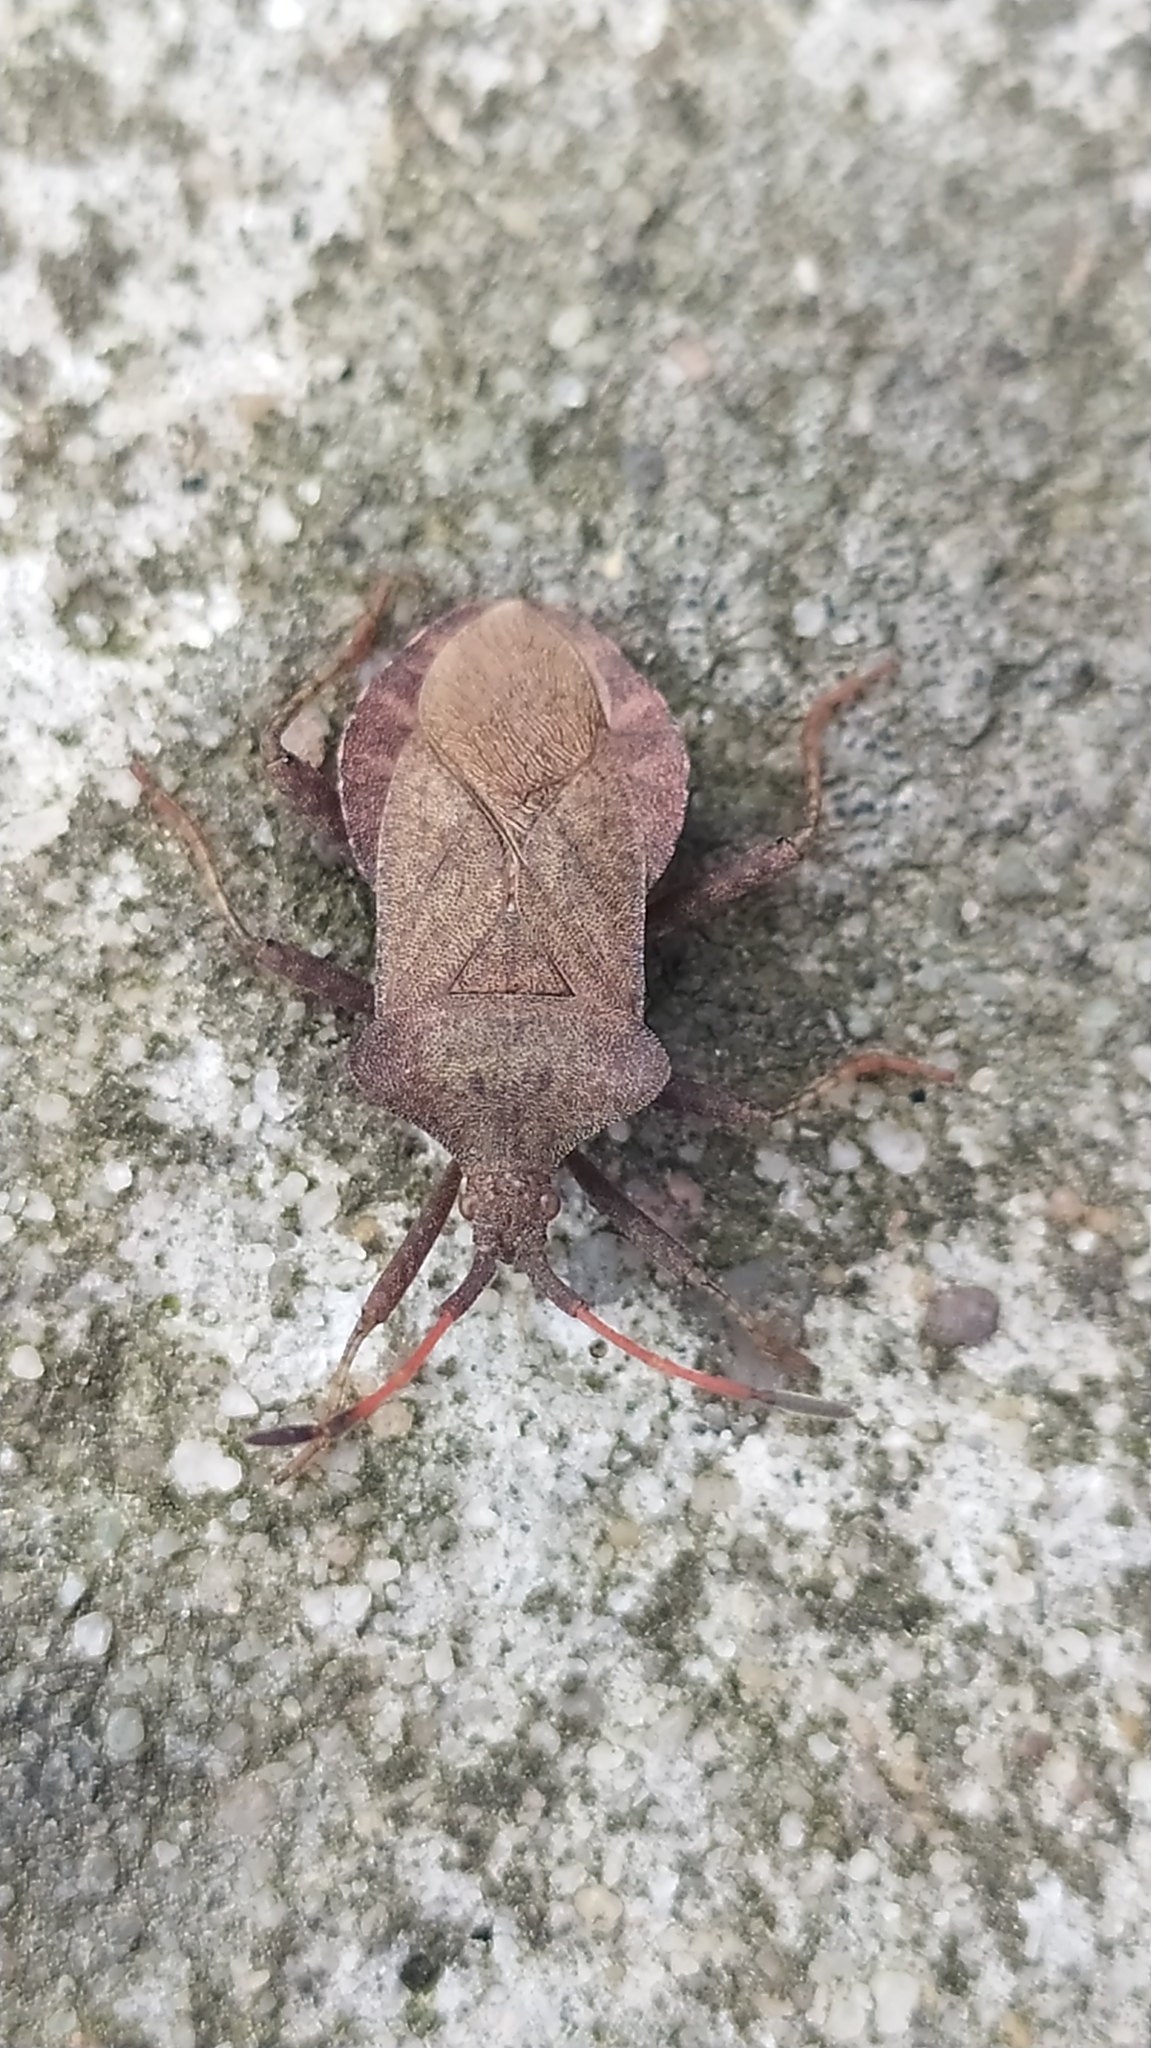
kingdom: Animalia
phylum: Arthropoda
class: Insecta
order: Hemiptera
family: Coreidae
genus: Coreus
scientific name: Coreus marginatus
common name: Dock bug
